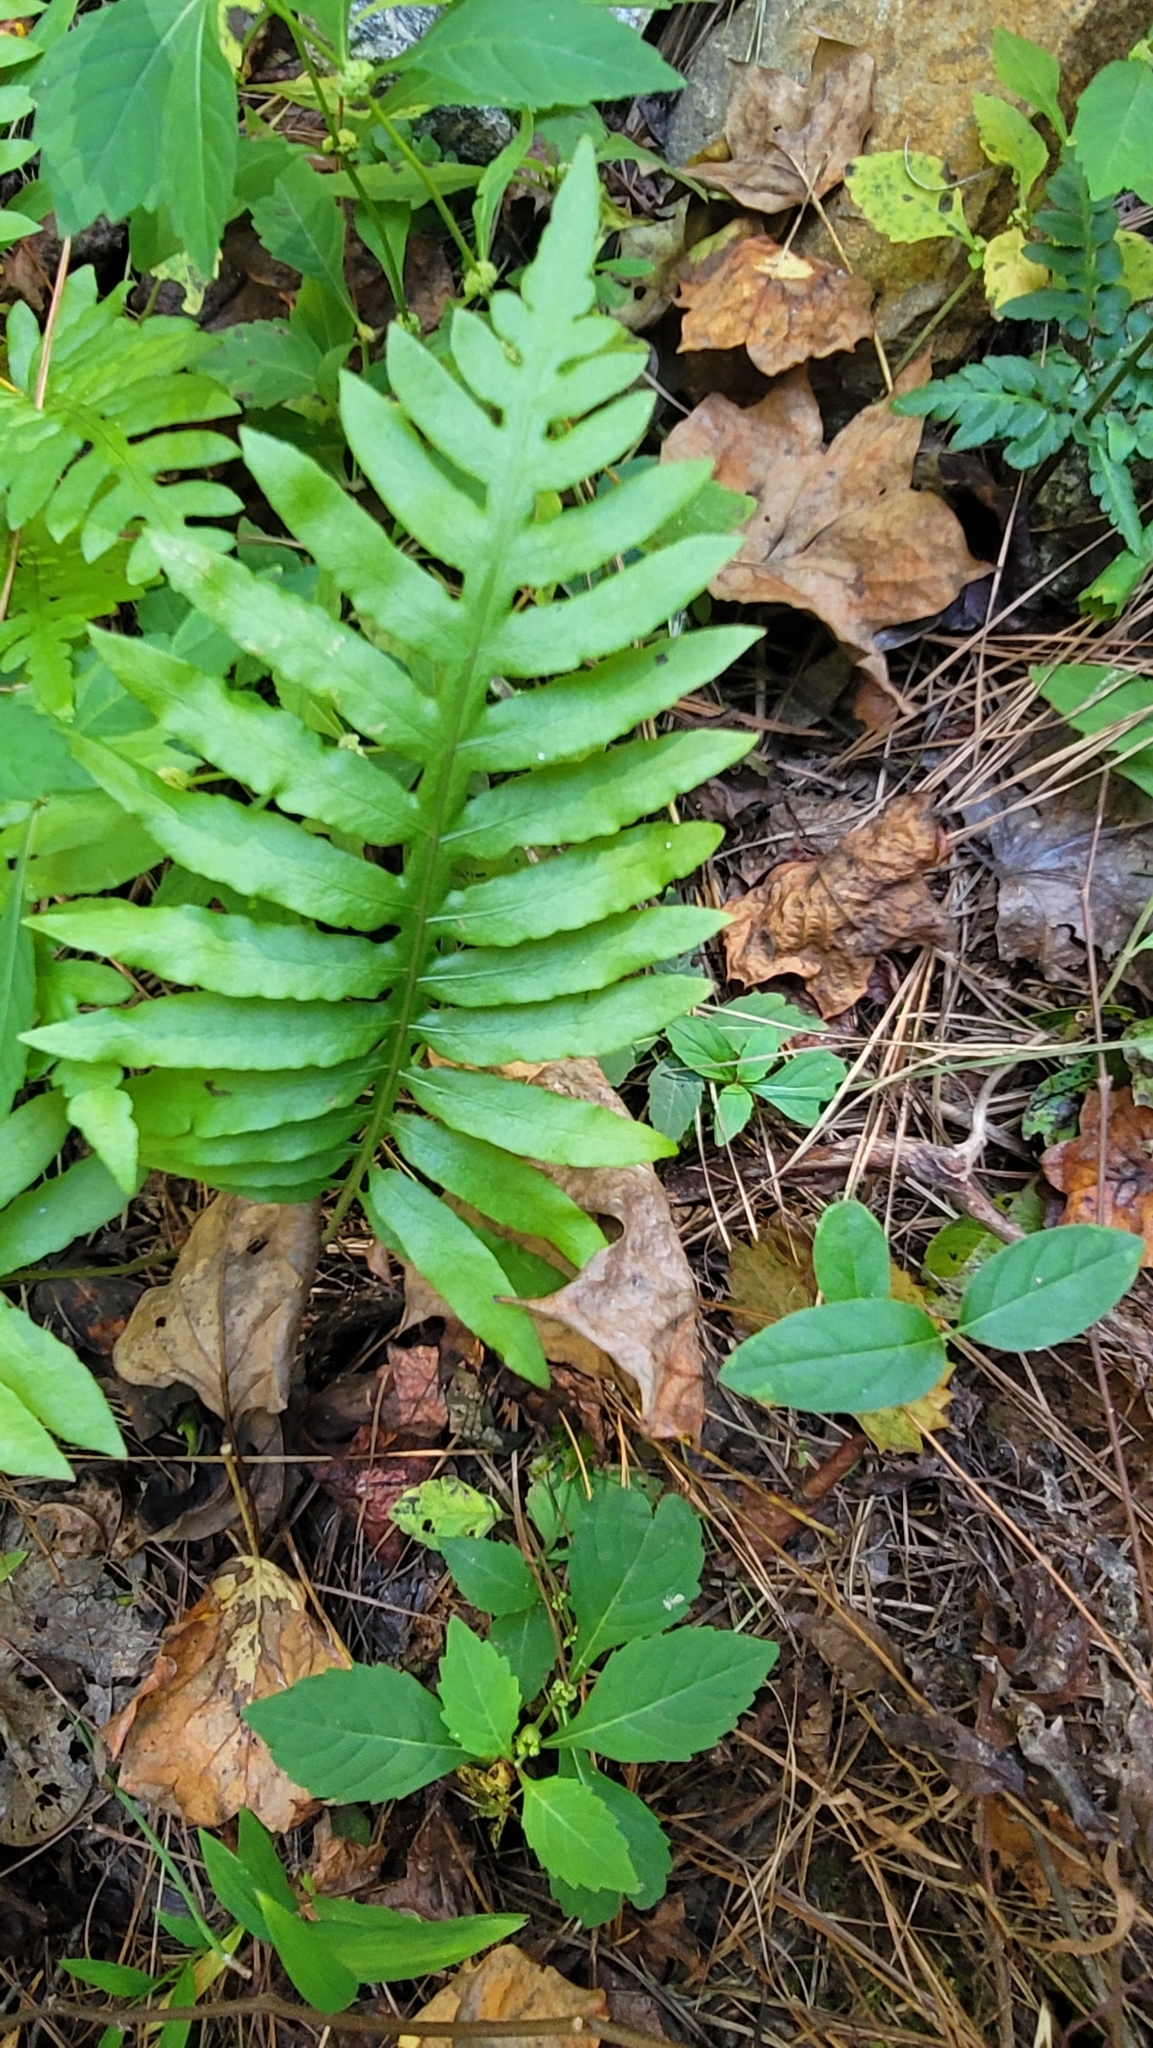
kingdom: Plantae
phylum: Tracheophyta
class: Polypodiopsida
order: Polypodiales
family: Blechnaceae
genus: Lorinseria
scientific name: Lorinseria areolata
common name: Dwarf chain fern
